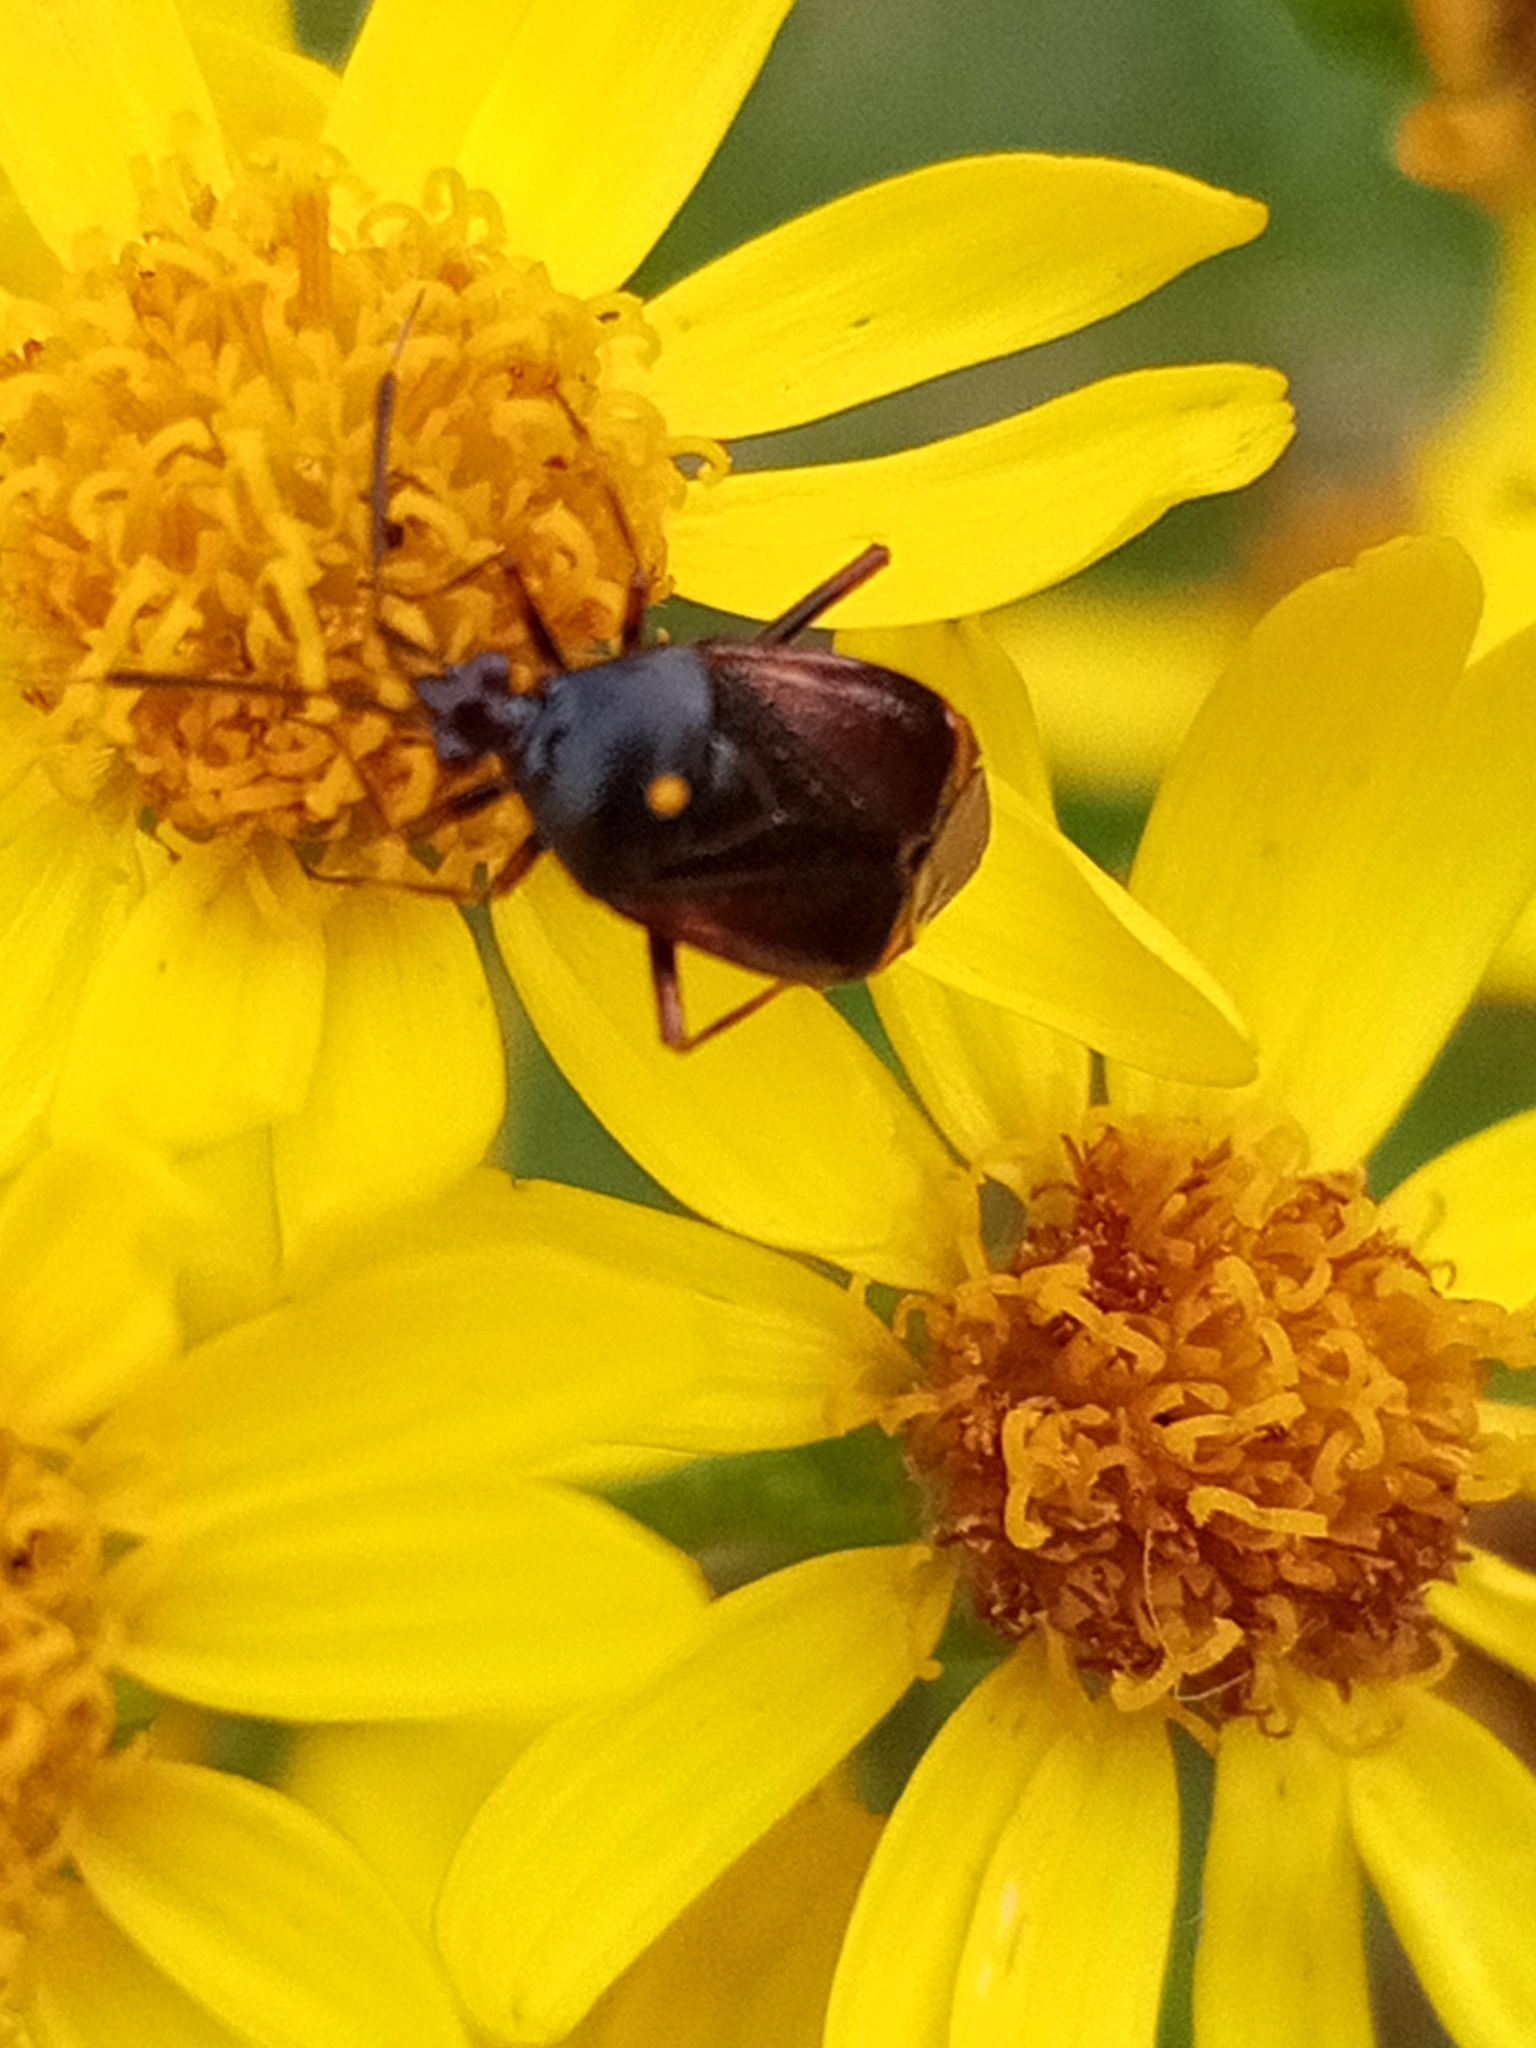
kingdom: Animalia
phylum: Arthropoda
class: Insecta
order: Hemiptera
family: Miridae
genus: Deraeocoris
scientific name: Deraeocoris ruber
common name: Plant bug
